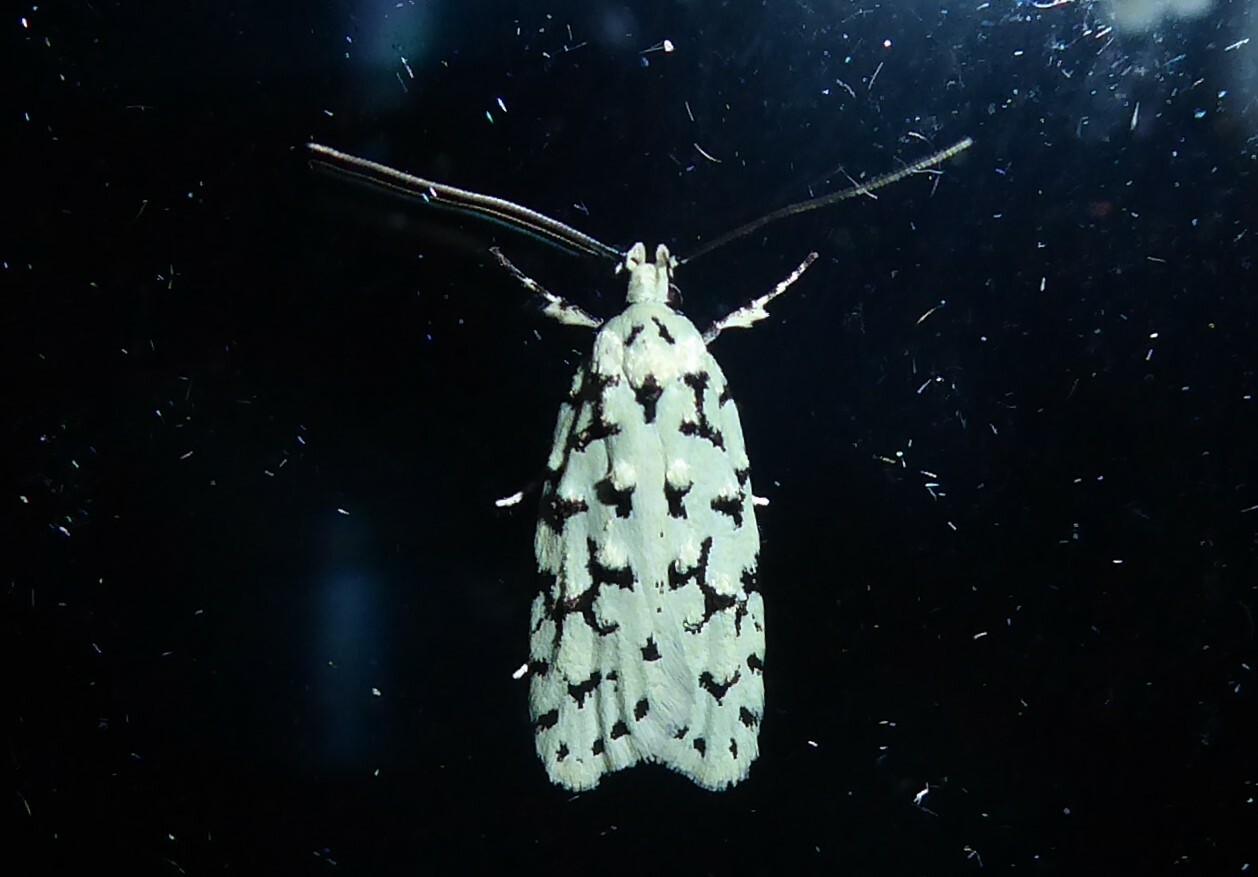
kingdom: Animalia
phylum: Arthropoda
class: Insecta
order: Lepidoptera
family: Oecophoridae
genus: Izatha
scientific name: Izatha huttoni
